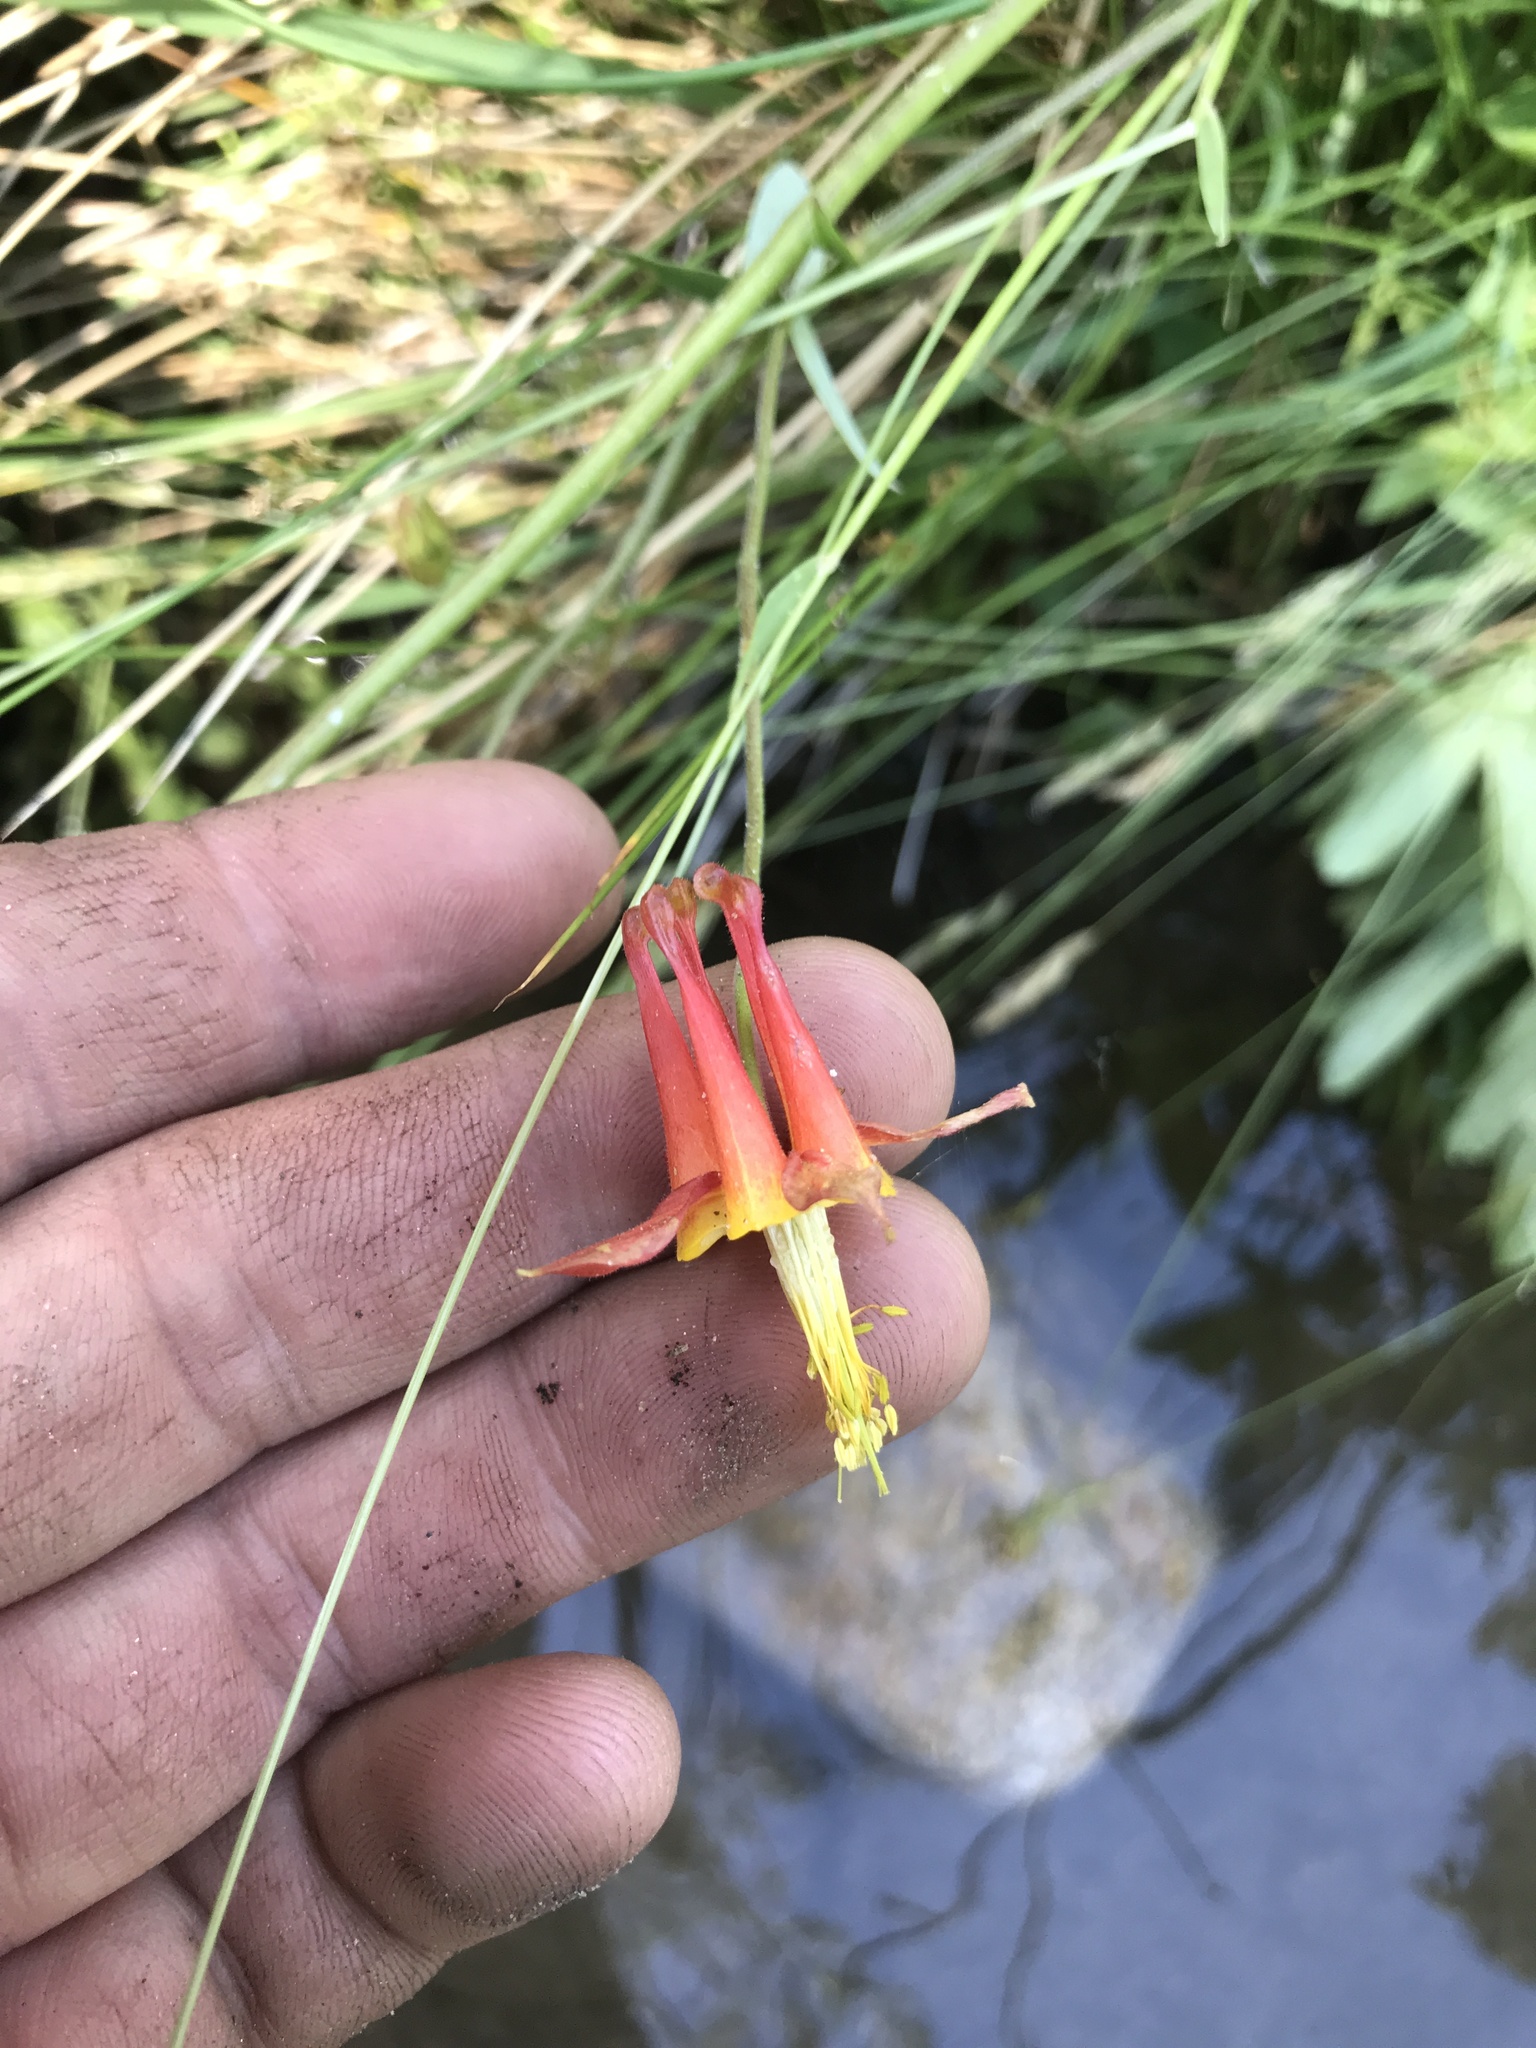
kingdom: Plantae
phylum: Tracheophyta
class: Magnoliopsida
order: Ranunculales
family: Ranunculaceae
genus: Aquilegia
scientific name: Aquilegia formosa
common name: Sitka columbine
